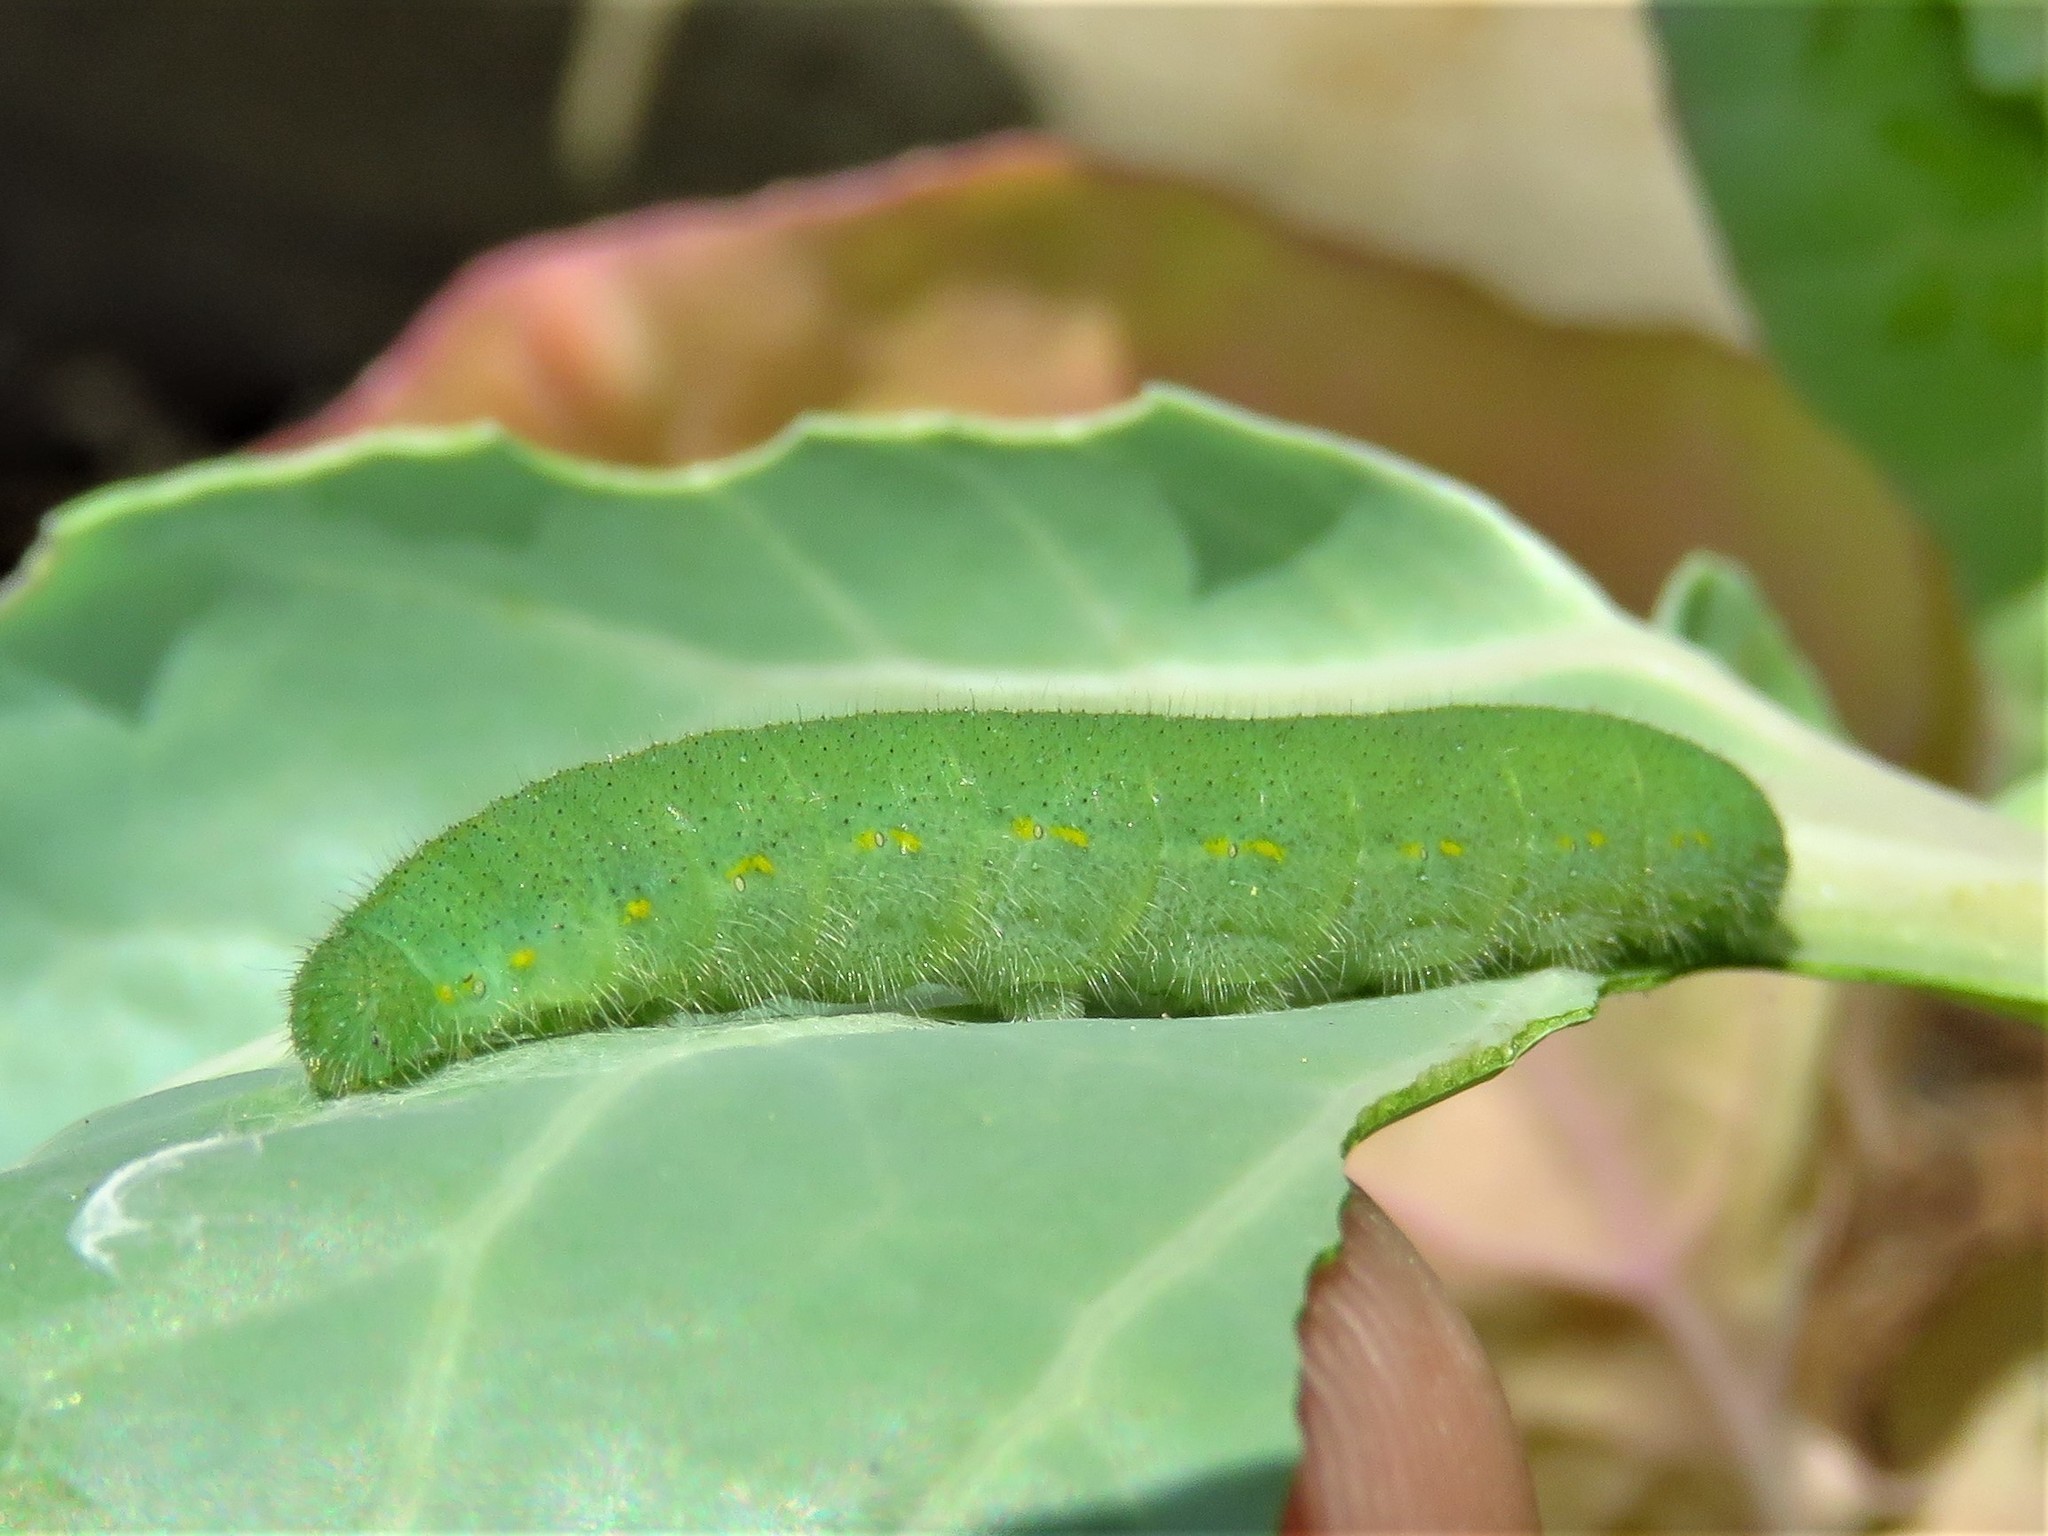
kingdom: Animalia
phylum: Arthropoda
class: Insecta
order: Lepidoptera
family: Pieridae
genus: Pieris
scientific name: Pieris rapae
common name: Small white
